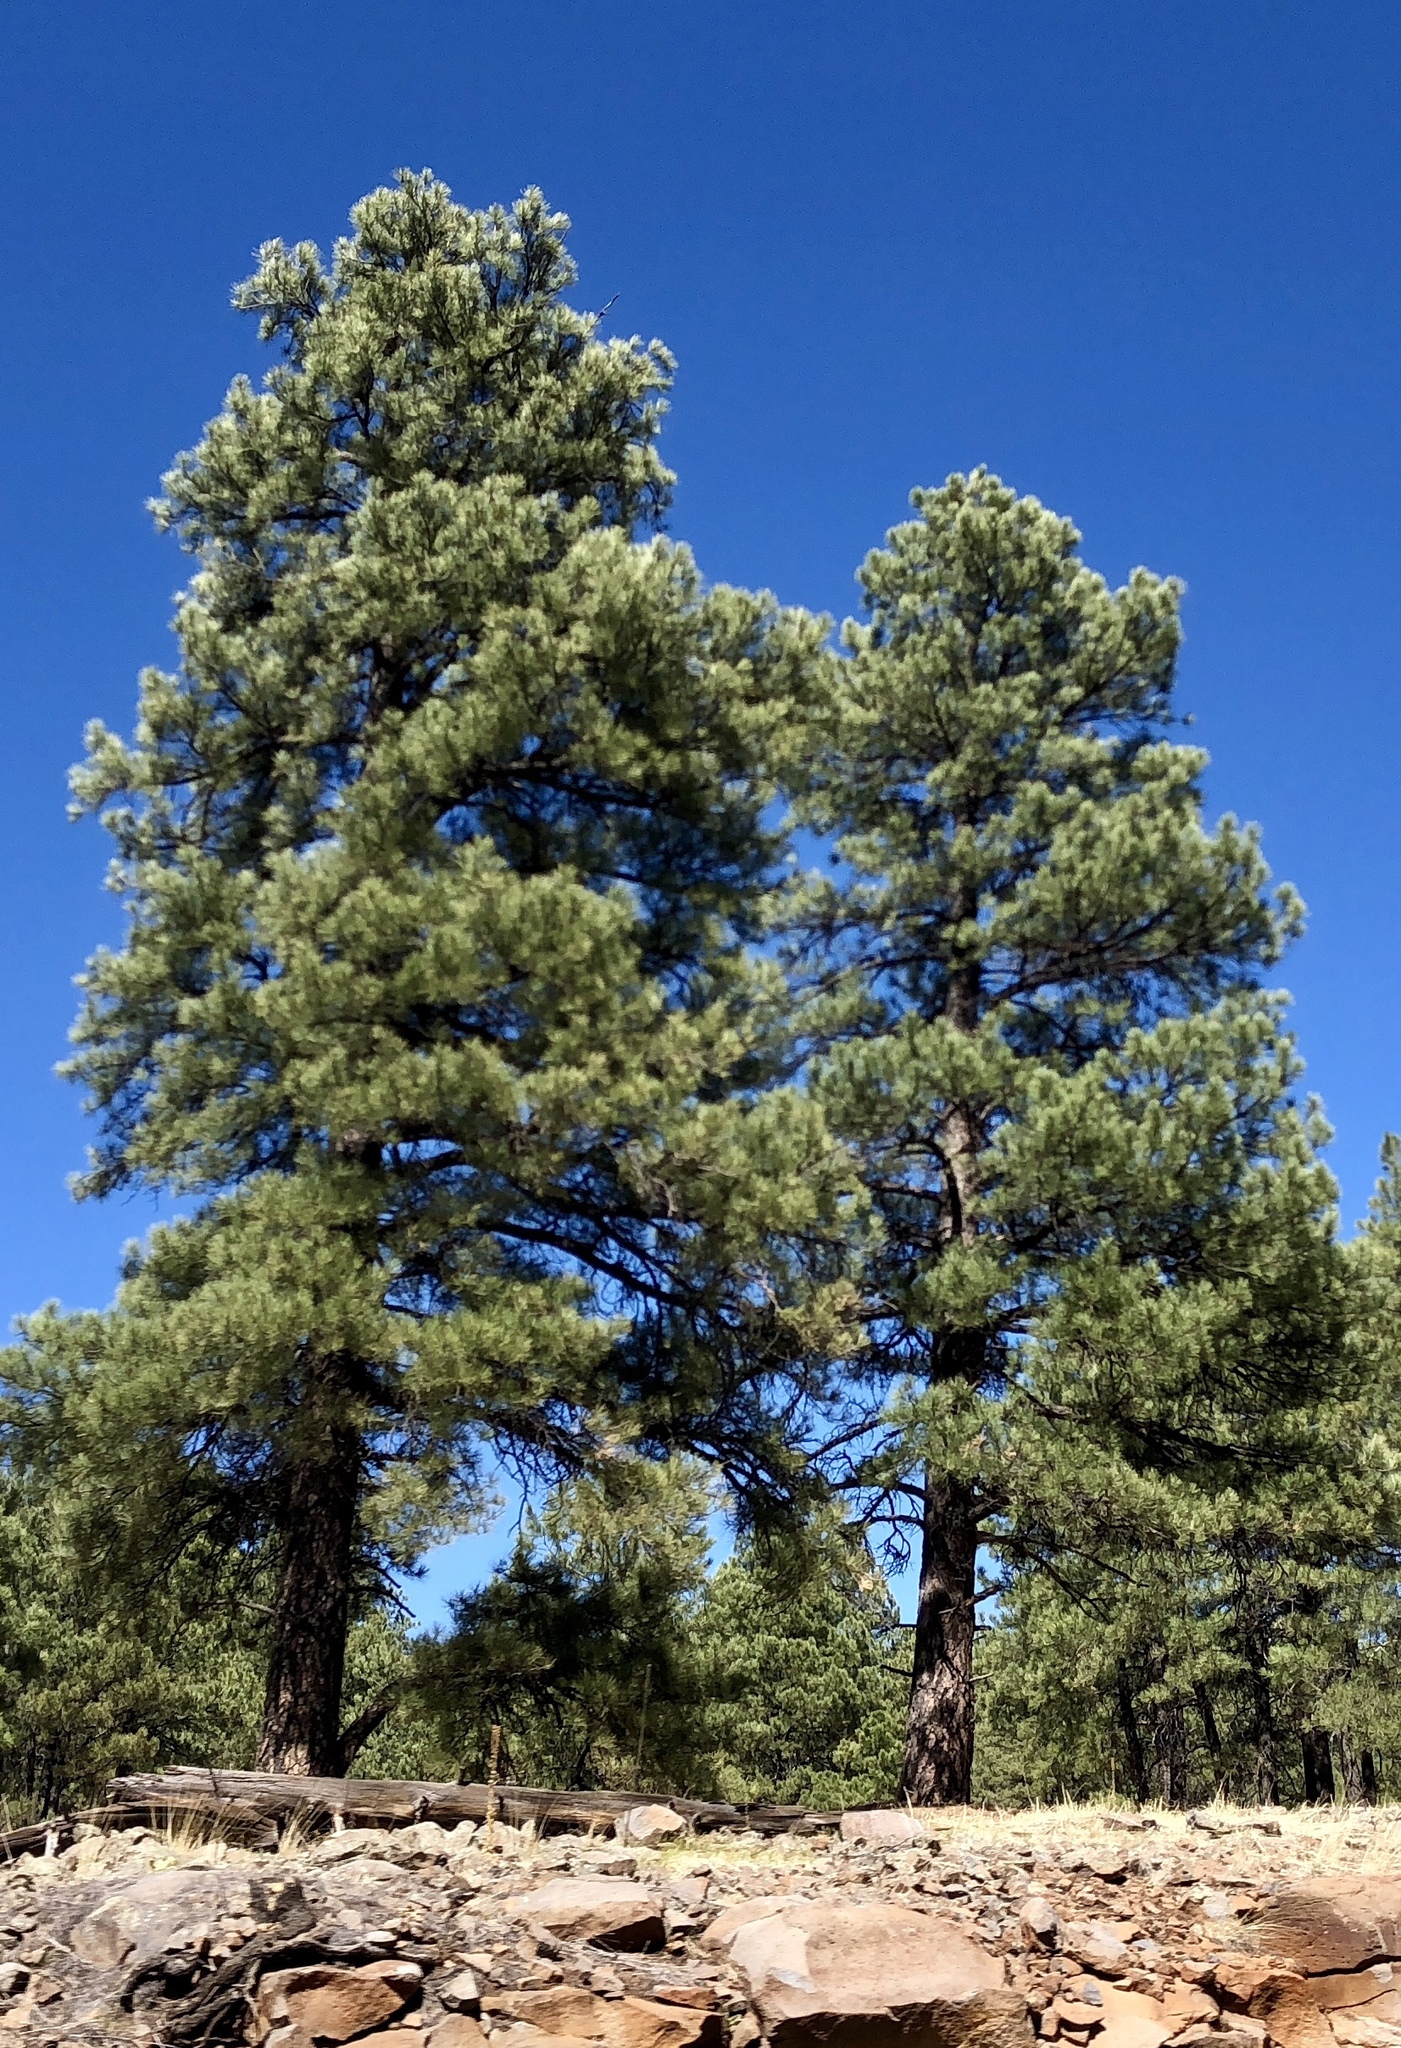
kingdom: Plantae
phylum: Tracheophyta
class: Pinopsida
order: Pinales
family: Pinaceae
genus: Pinus
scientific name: Pinus ponderosa
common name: Western yellow-pine
